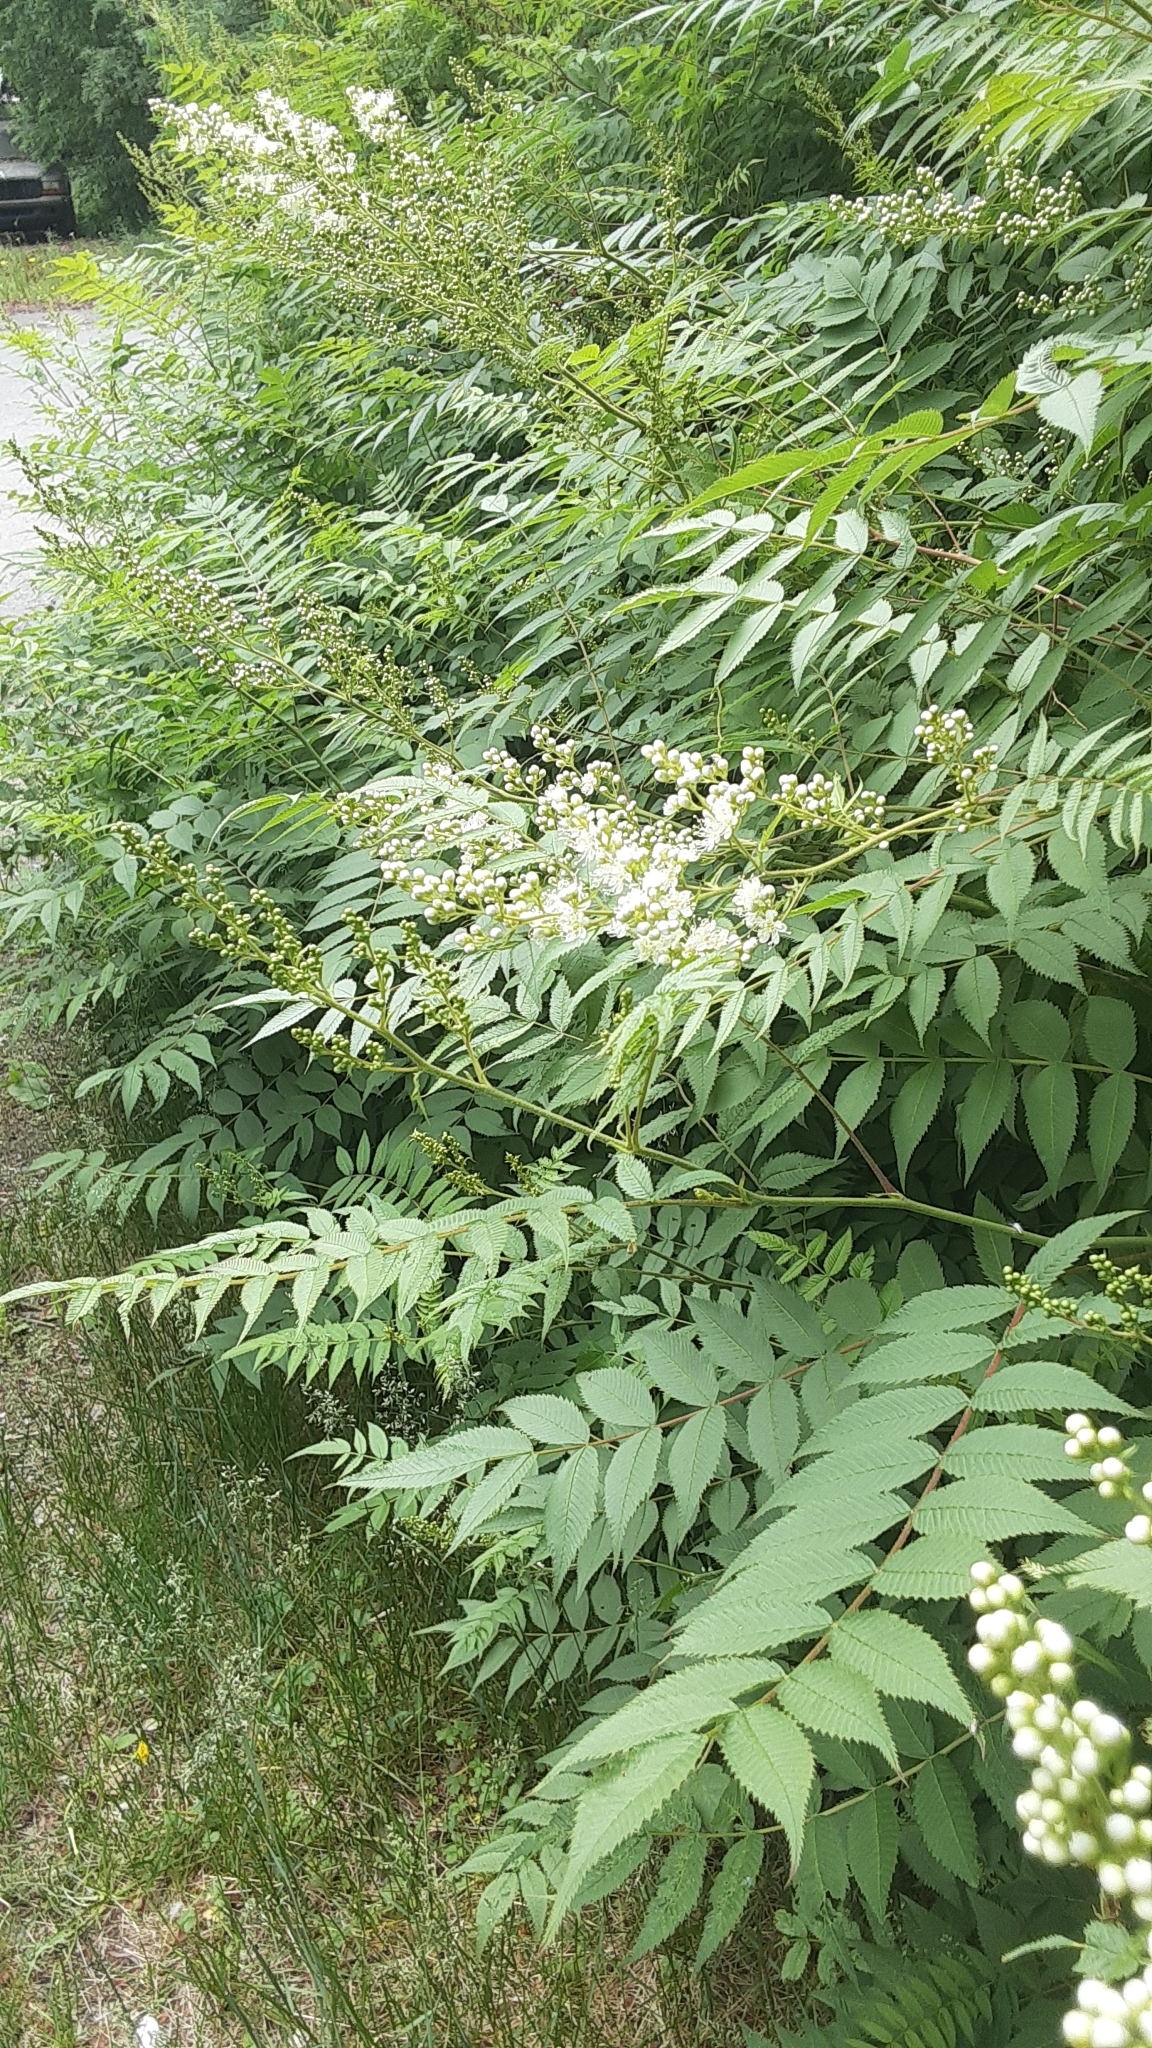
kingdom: Plantae
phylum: Tracheophyta
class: Magnoliopsida
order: Rosales
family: Rosaceae
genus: Sorbaria
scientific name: Sorbaria sorbifolia
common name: False spiraea
